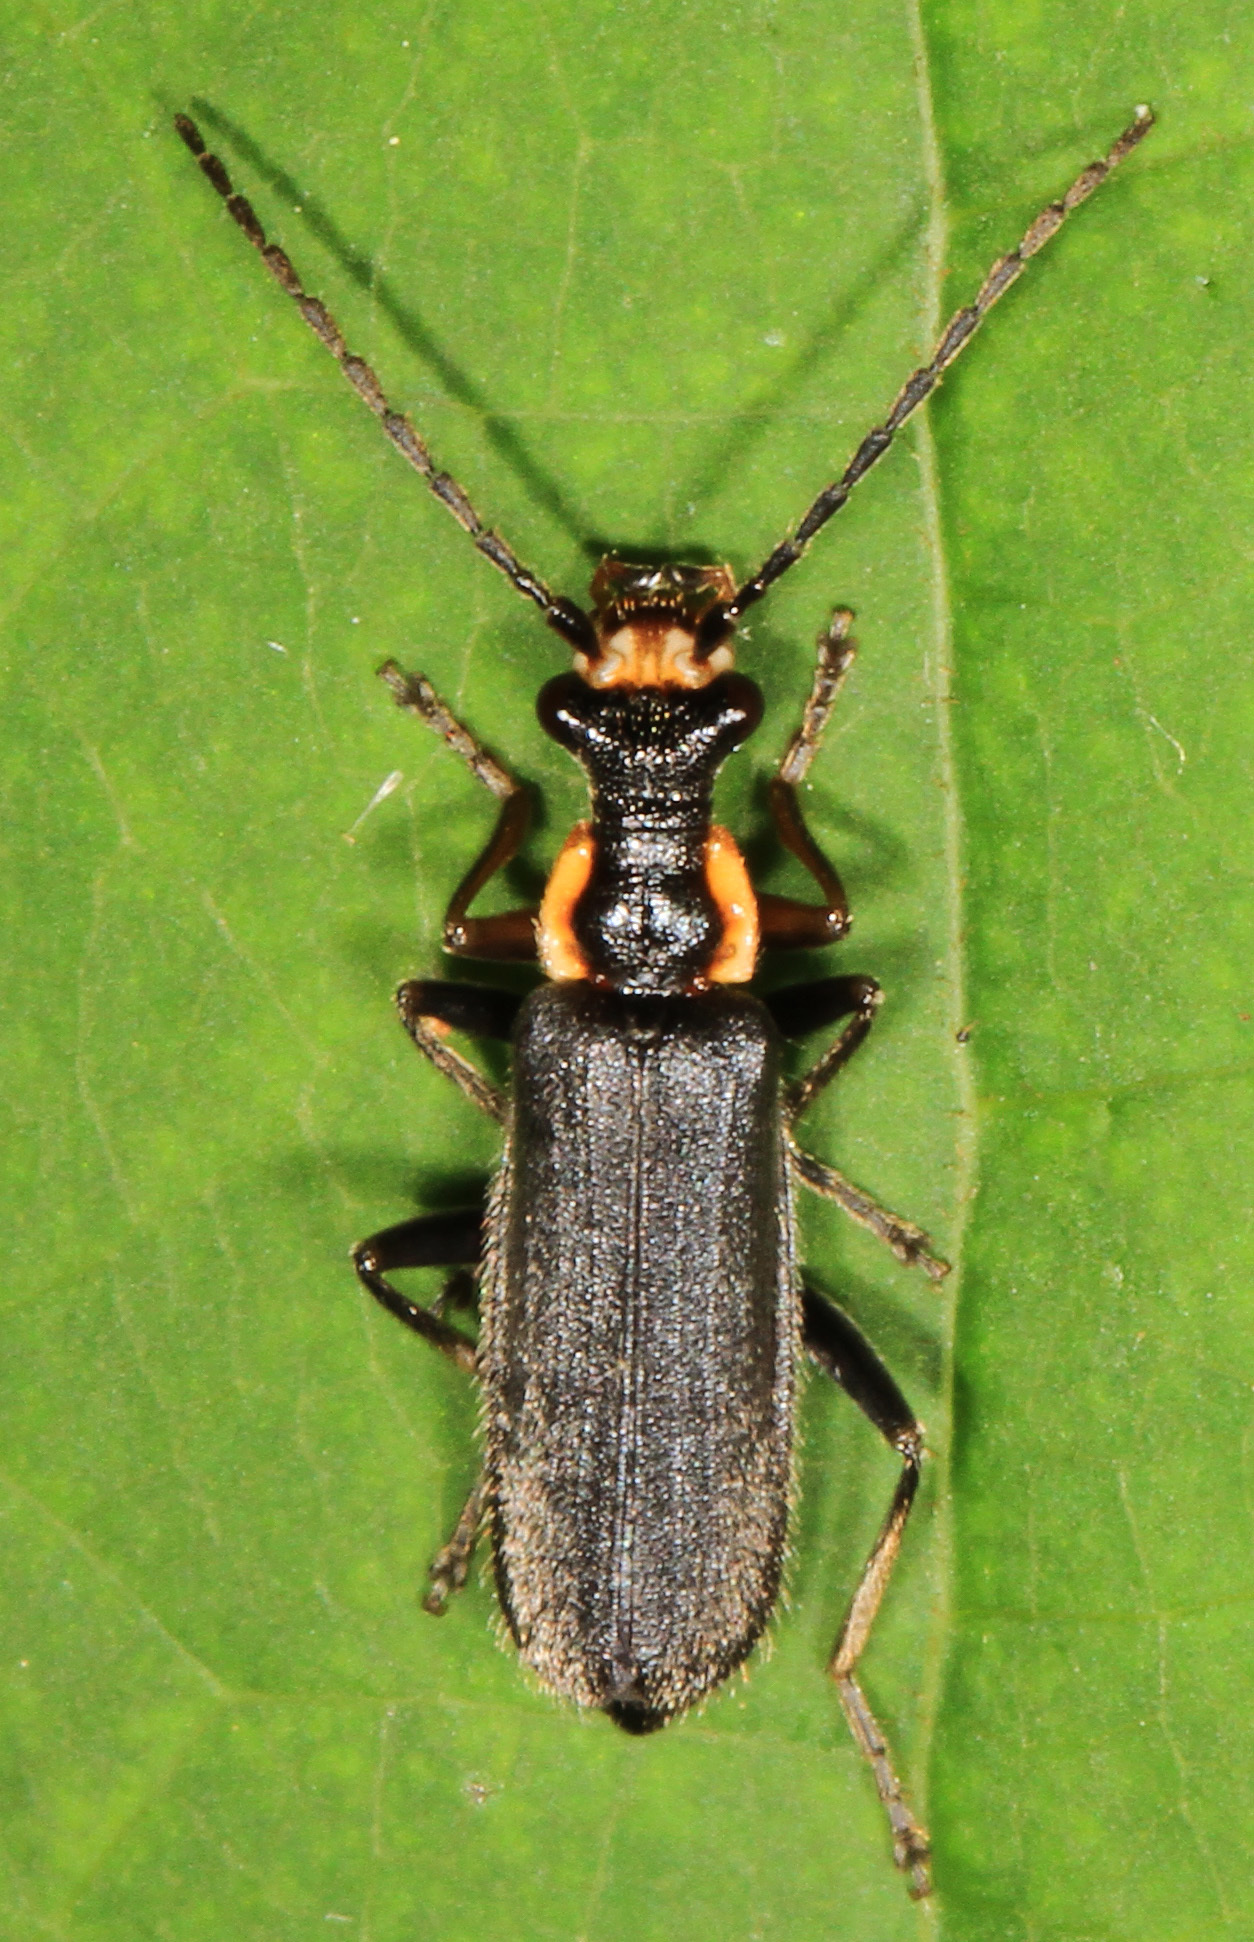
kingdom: Animalia
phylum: Arthropoda
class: Insecta
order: Coleoptera
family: Cantharidae
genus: Podabrus
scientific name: Podabrus rugosulus
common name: Wrinkled soldier beetle
